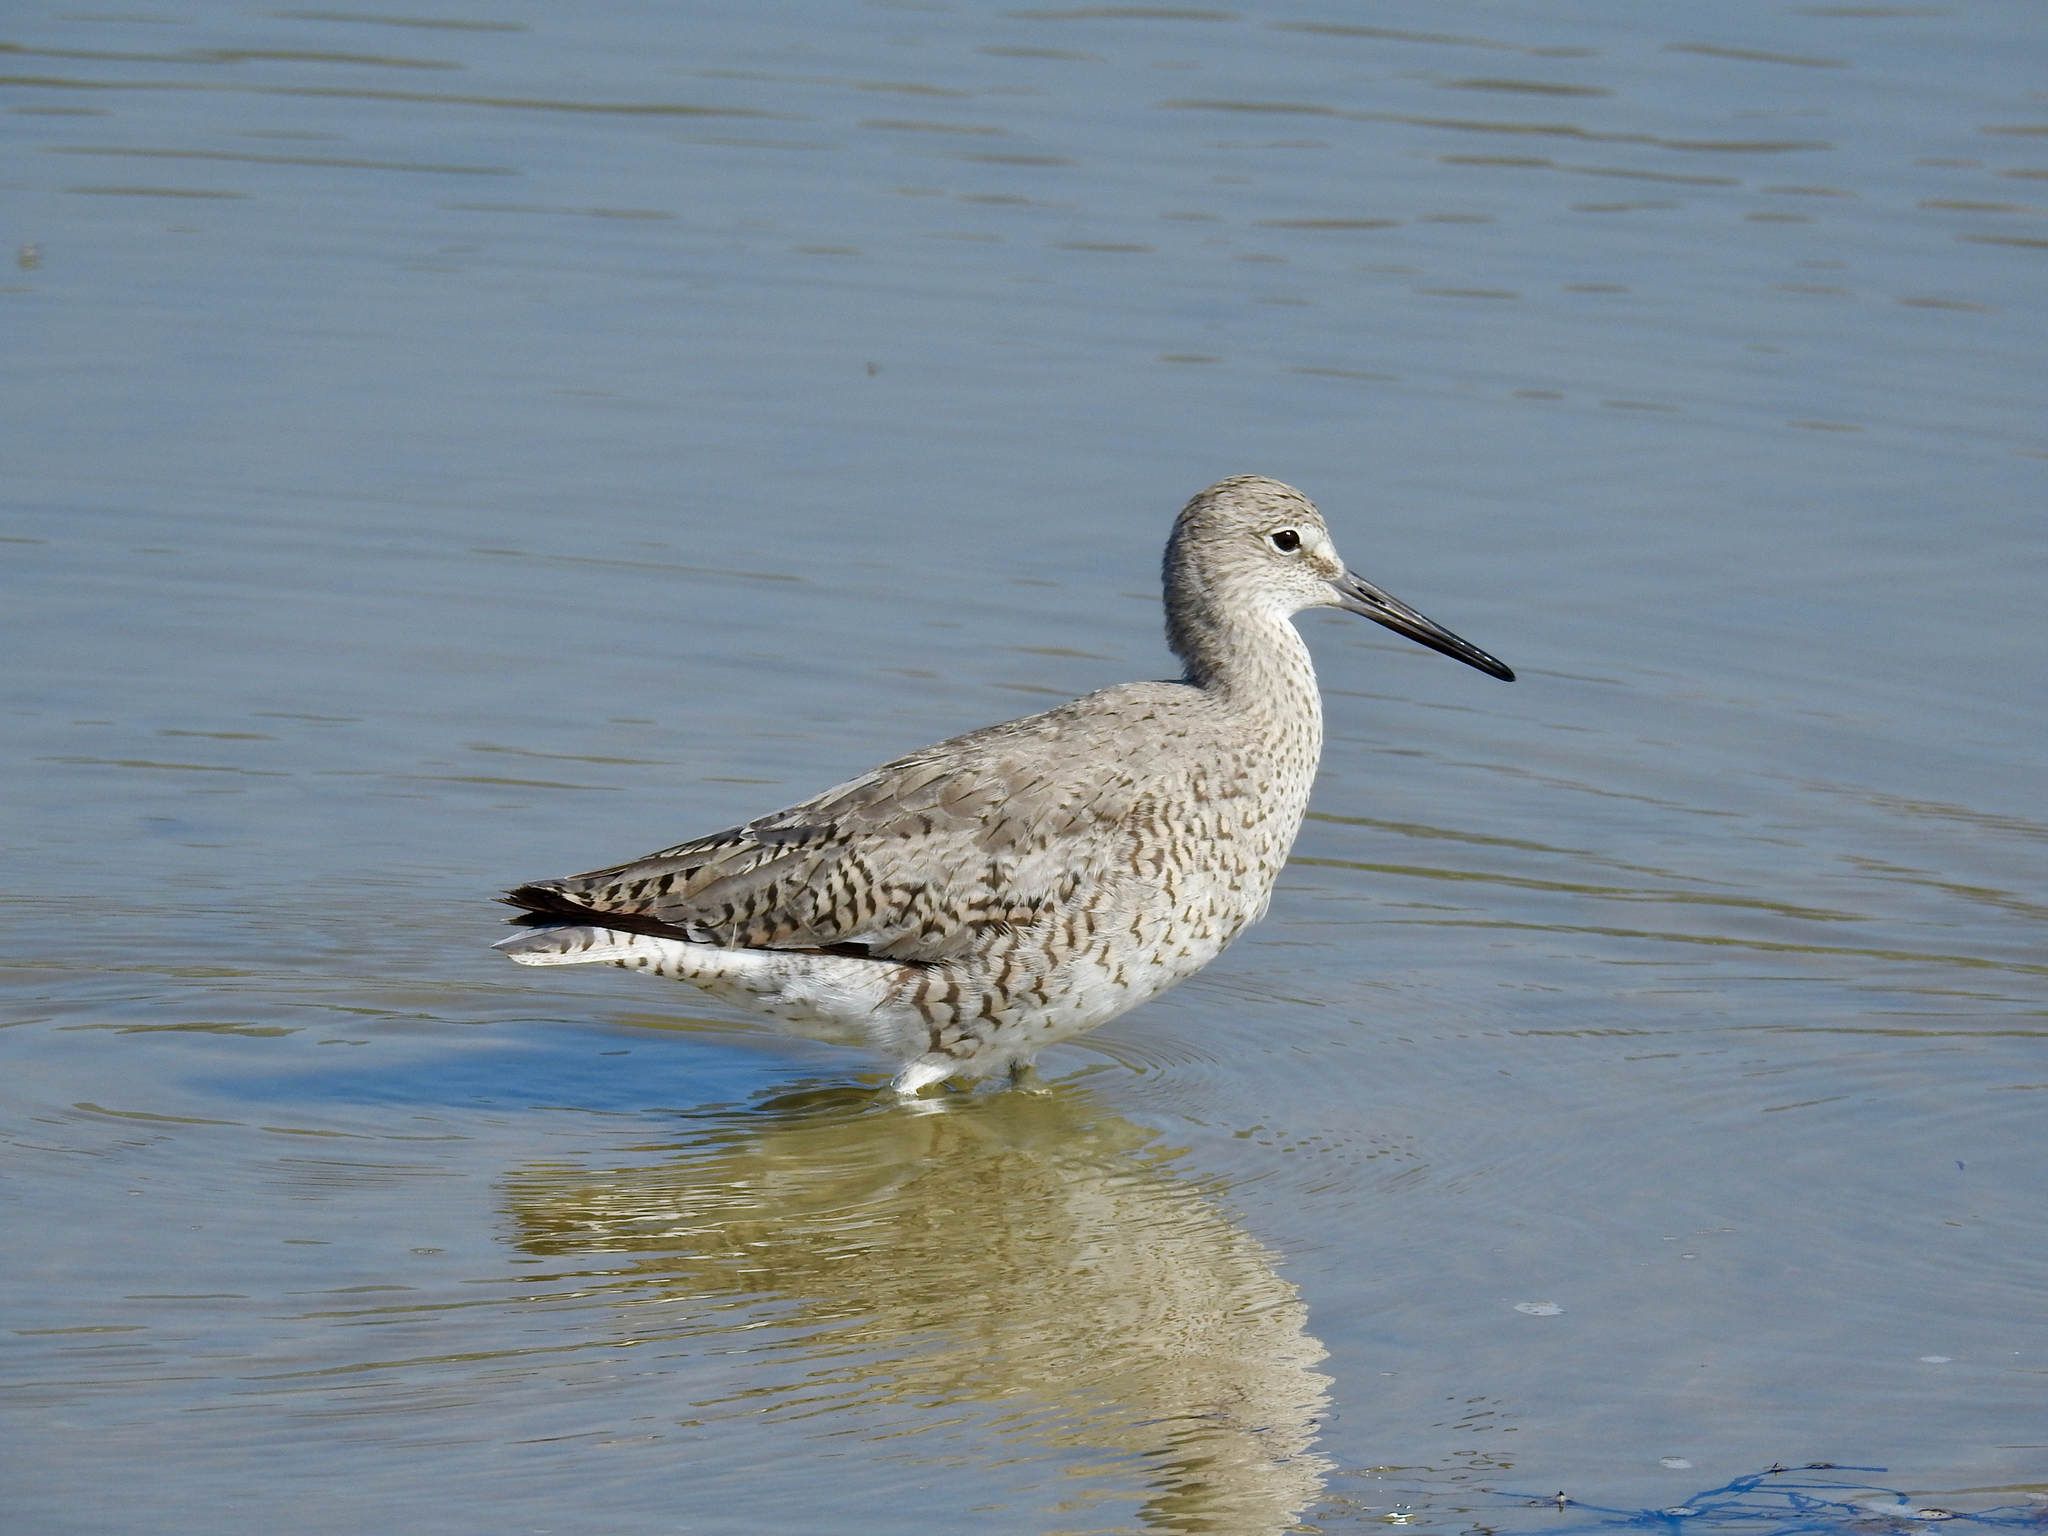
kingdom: Animalia
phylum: Chordata
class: Aves
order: Charadriiformes
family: Scolopacidae
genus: Tringa
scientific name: Tringa semipalmata
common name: Willet
